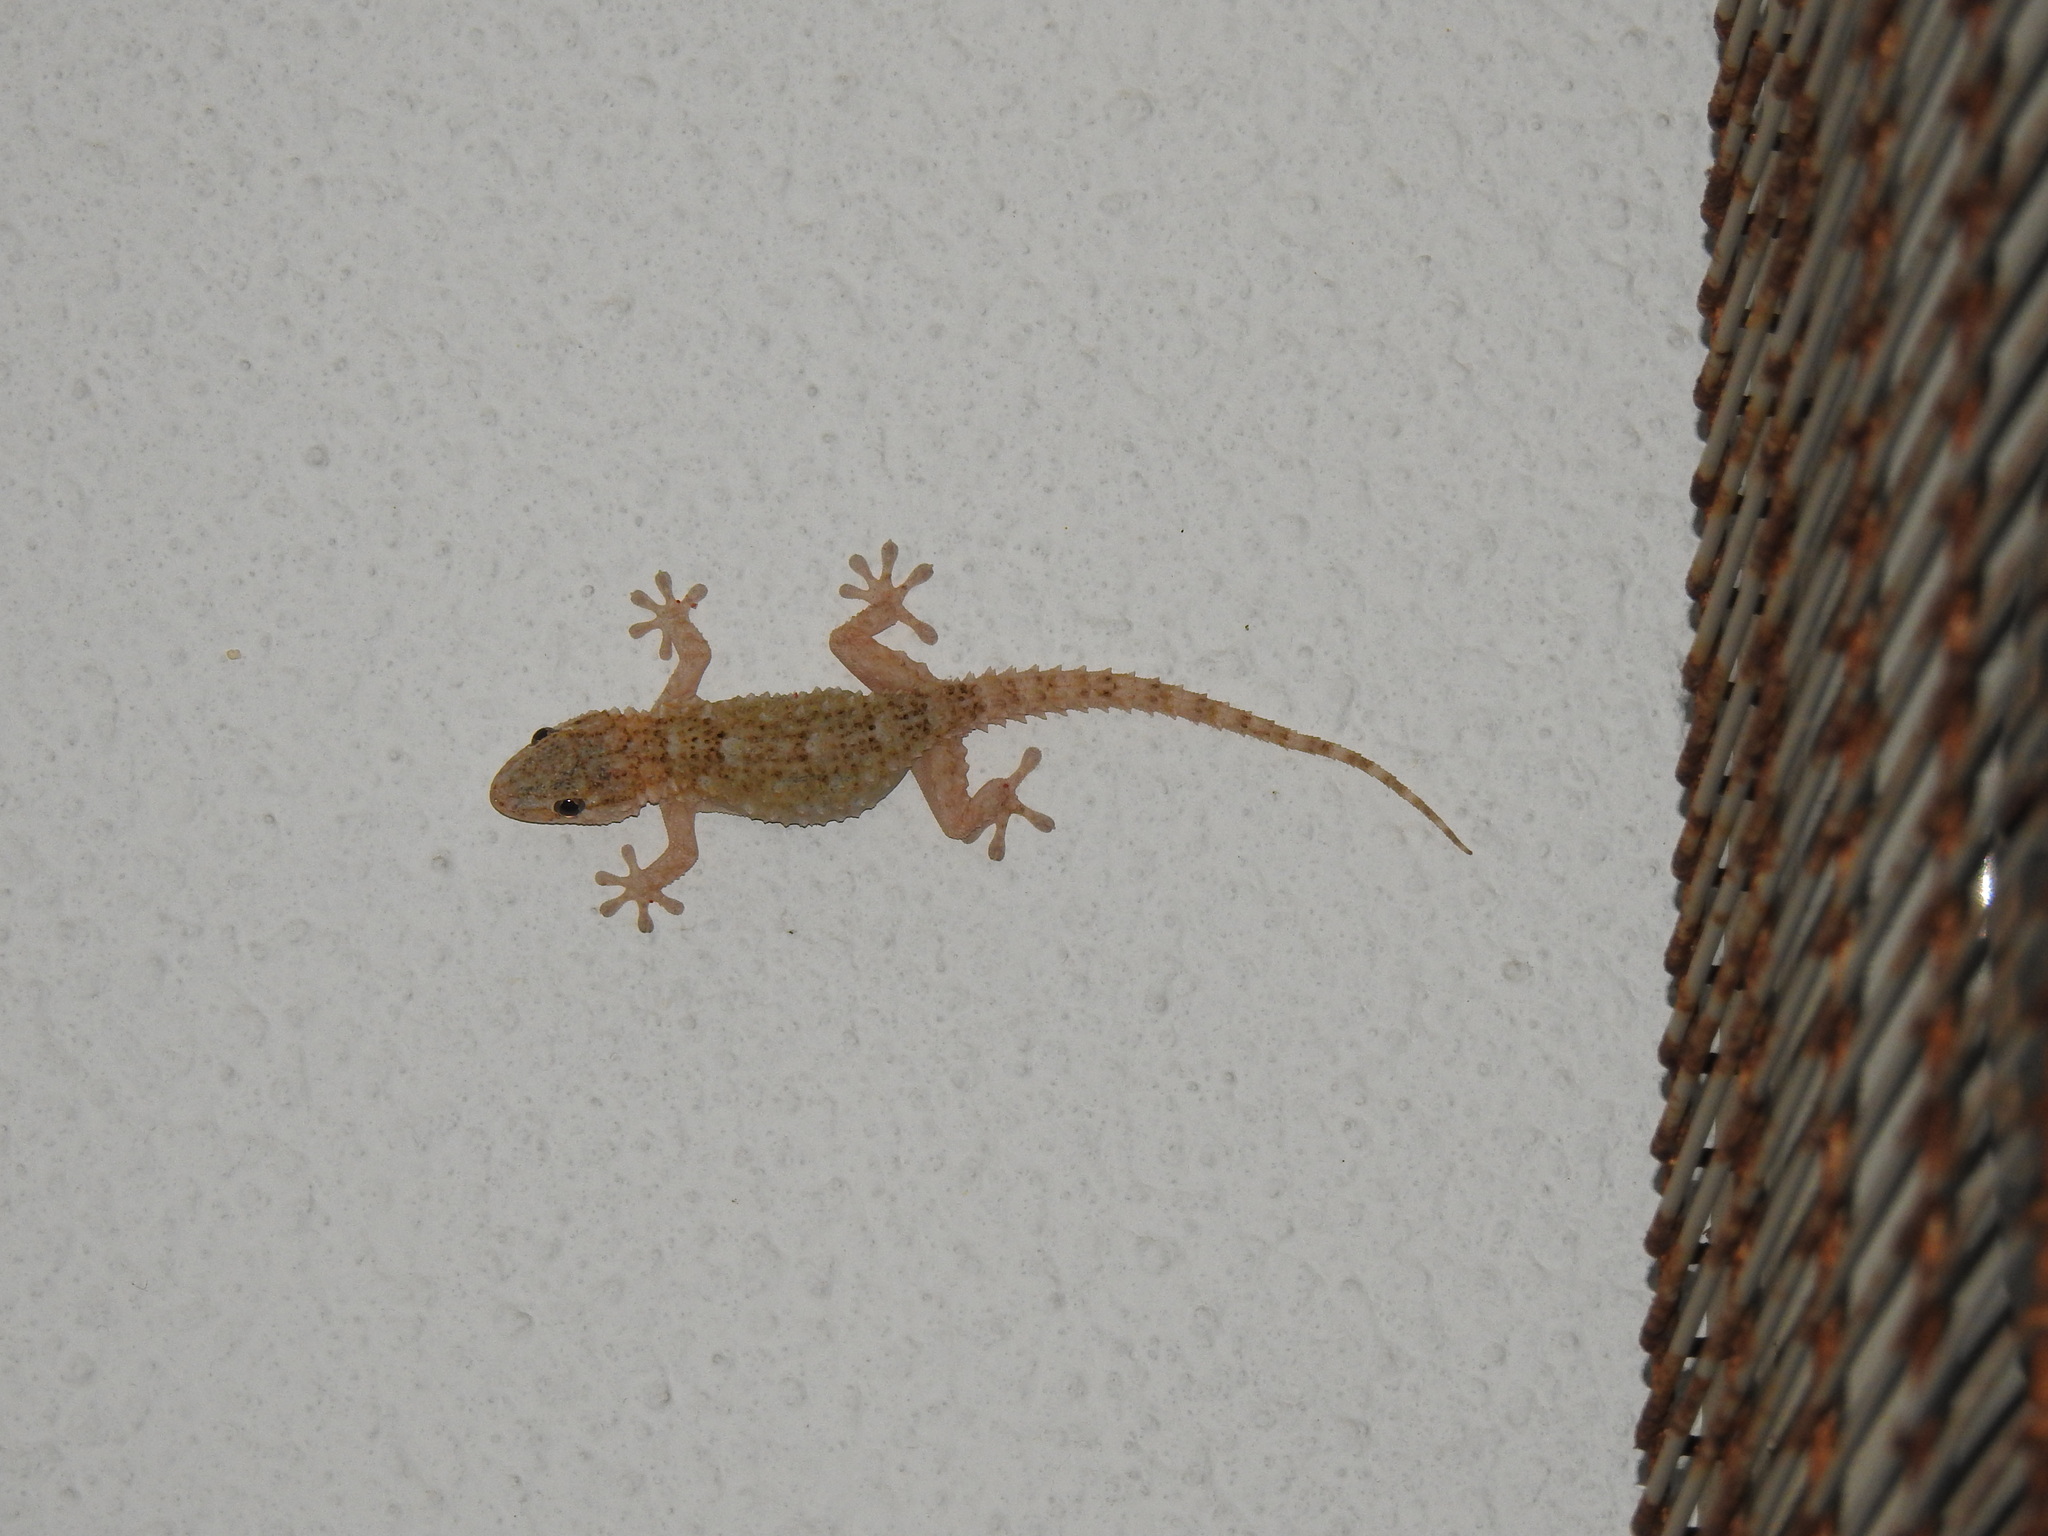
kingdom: Animalia
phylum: Chordata
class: Squamata
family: Phyllodactylidae
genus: Tarentola
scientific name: Tarentola mauritanica
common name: Moorish gecko
